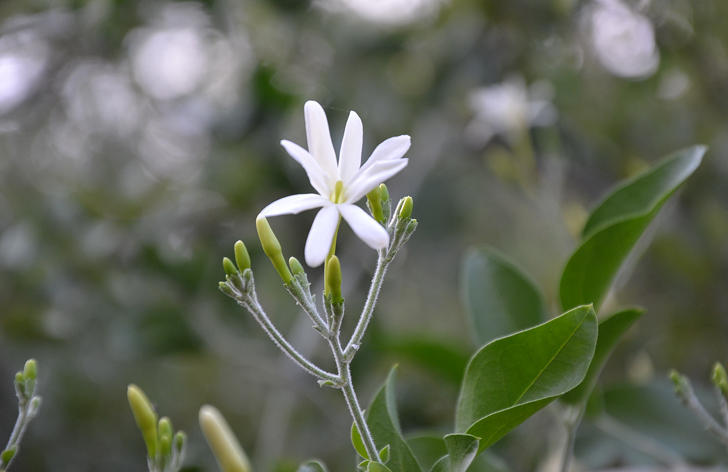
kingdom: Plantae
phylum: Tracheophyta
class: Magnoliopsida
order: Lamiales
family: Oleaceae
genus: Jasminum
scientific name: Jasminum fluminense
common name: Brazilian jasmine
